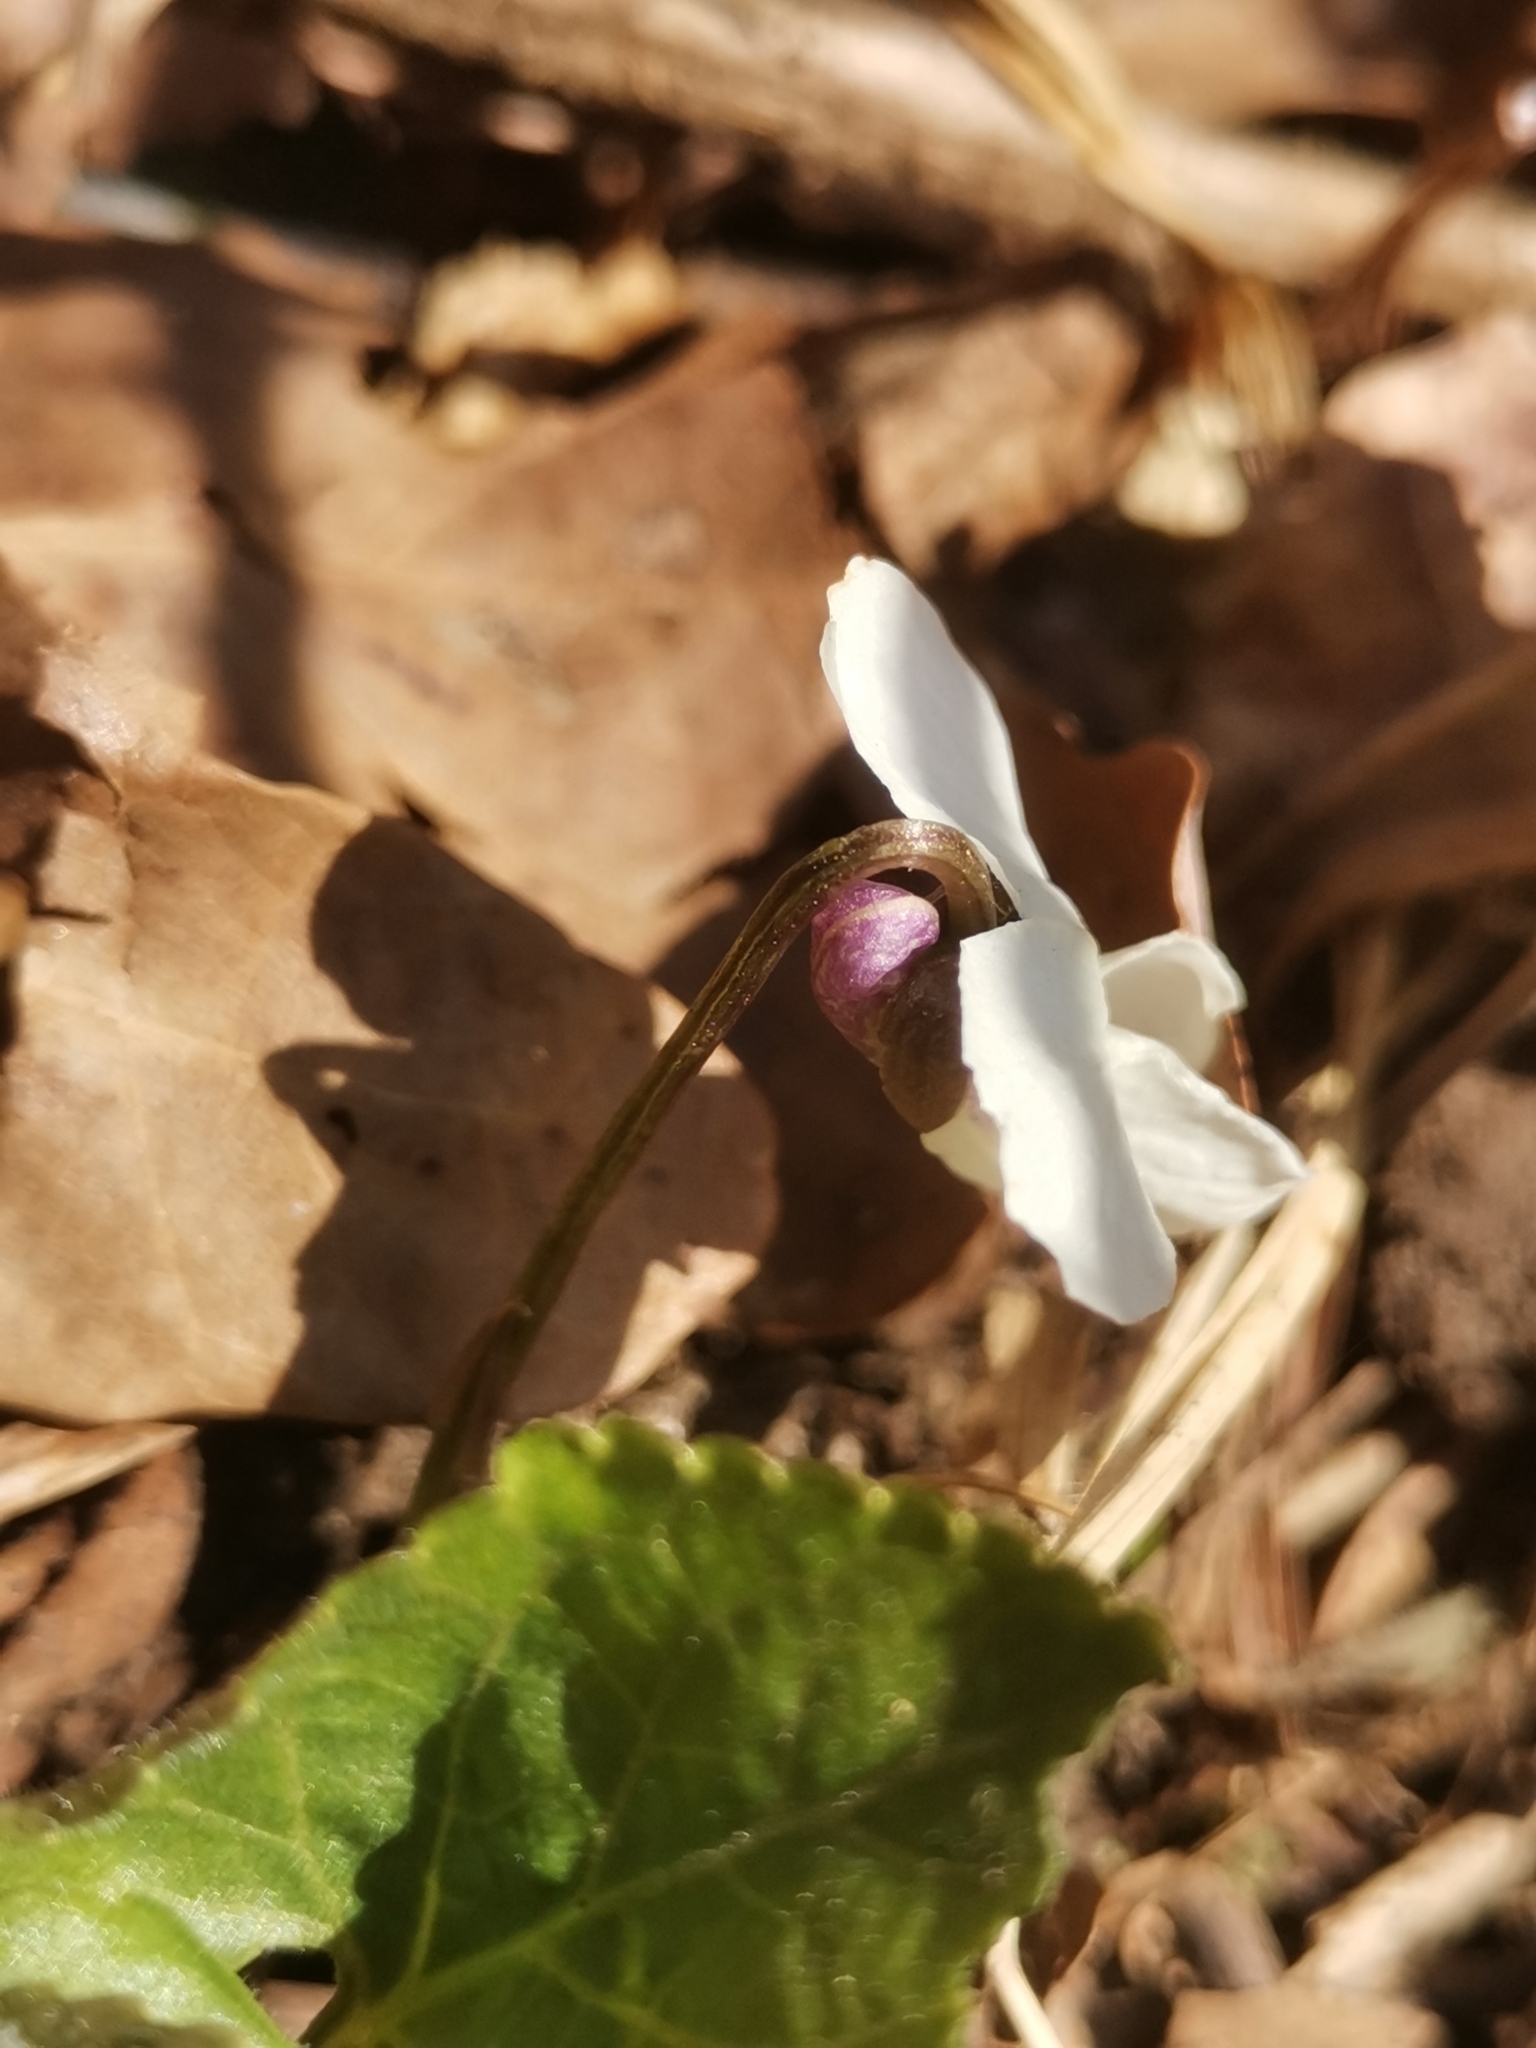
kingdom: Plantae
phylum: Tracheophyta
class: Magnoliopsida
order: Malpighiales
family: Violaceae
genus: Viola
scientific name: Viola alba
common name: White violet
